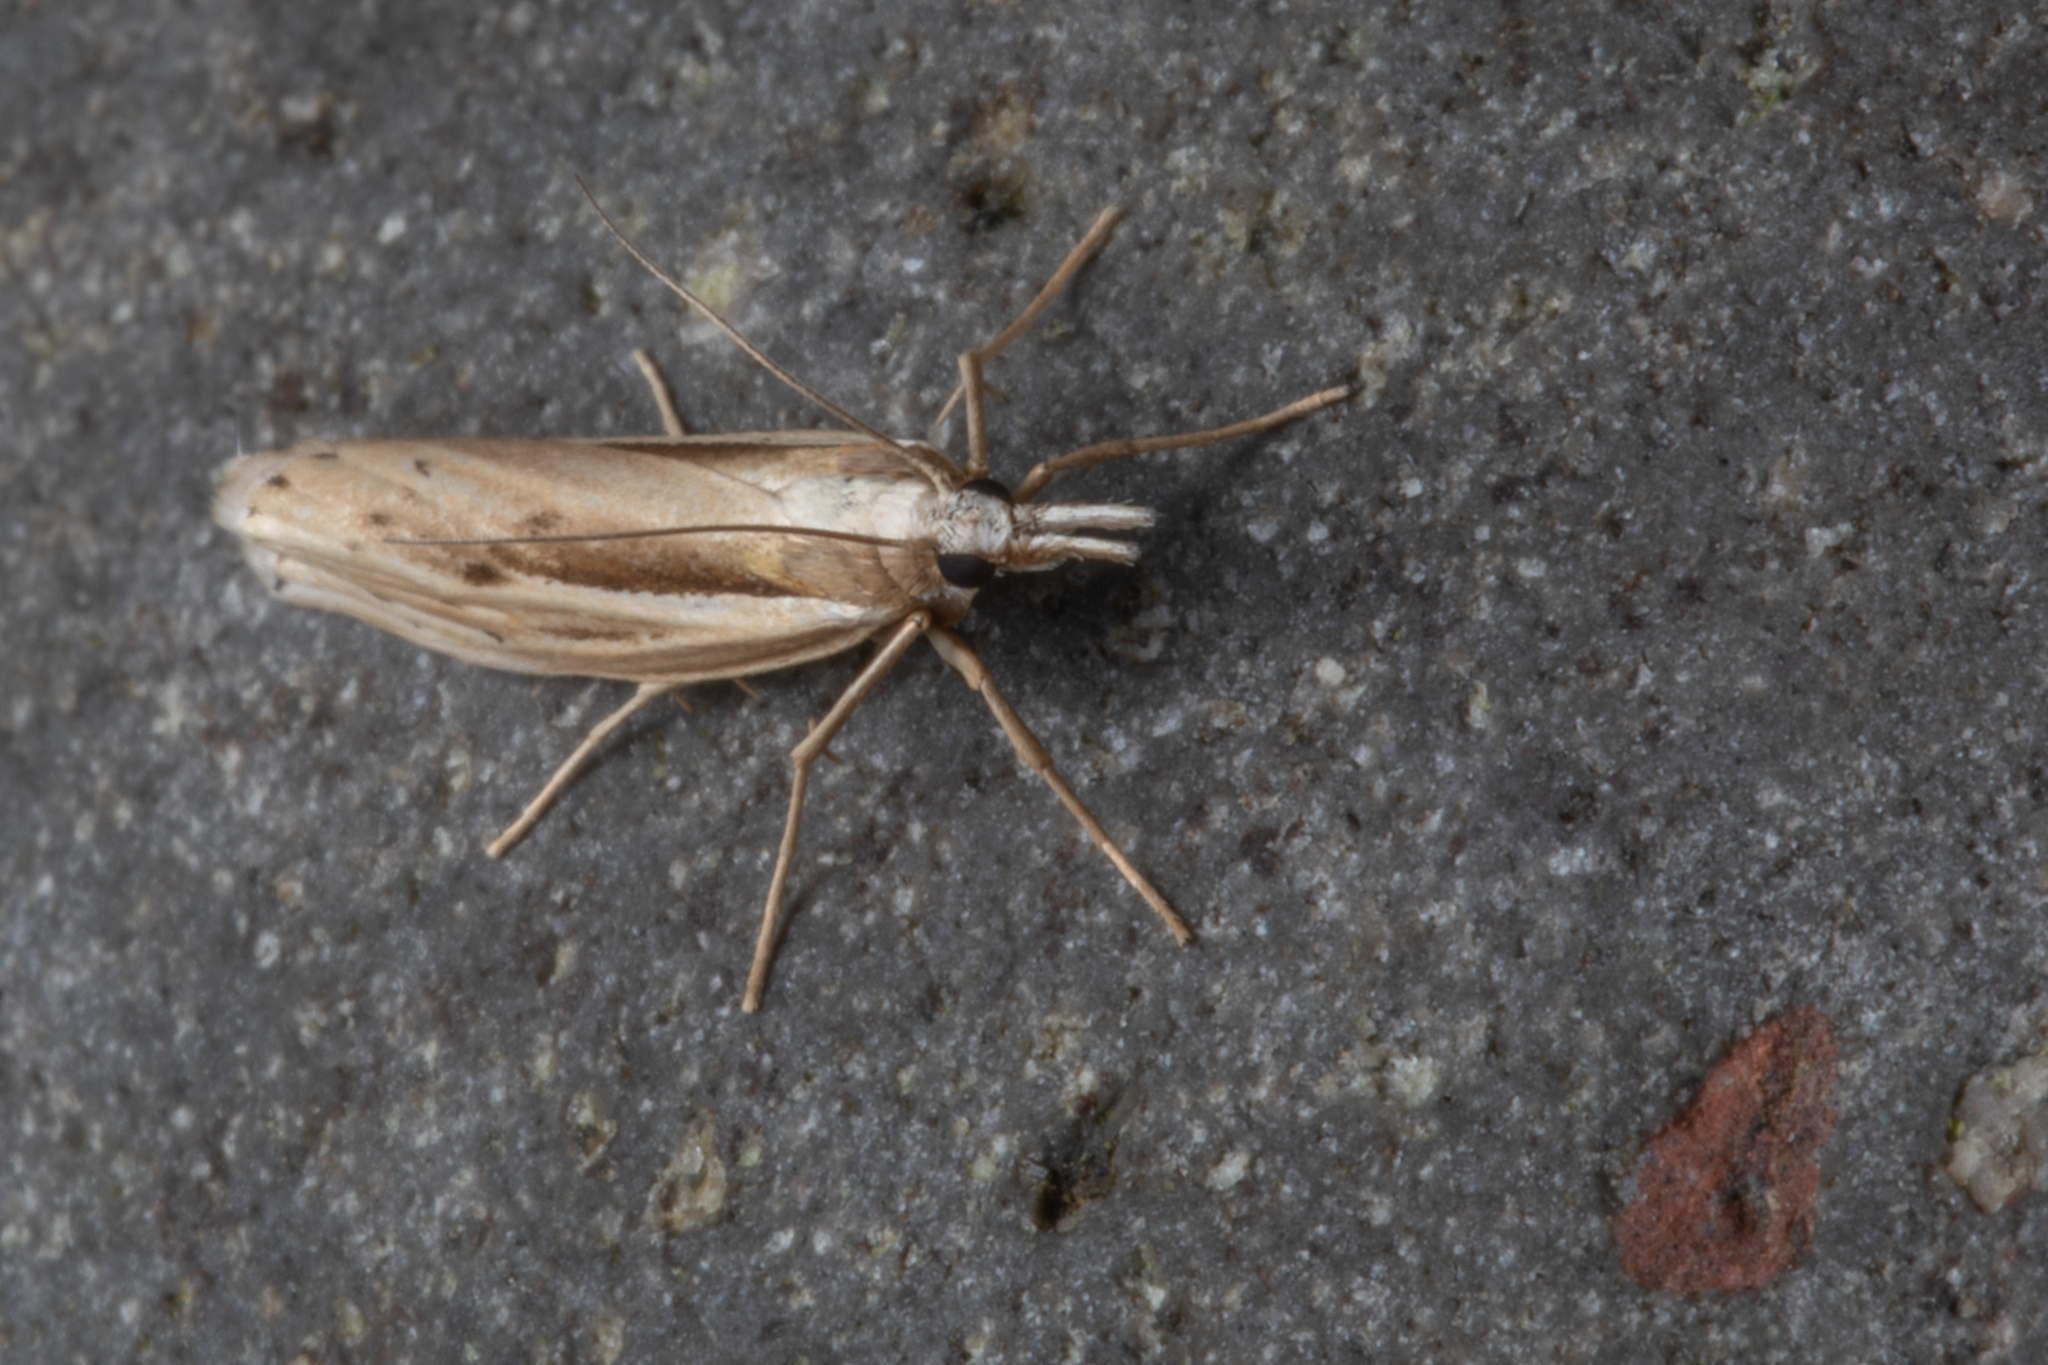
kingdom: Animalia
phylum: Arthropoda
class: Insecta
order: Lepidoptera
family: Crambidae
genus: Orocrambus
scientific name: Orocrambus ramosellus
